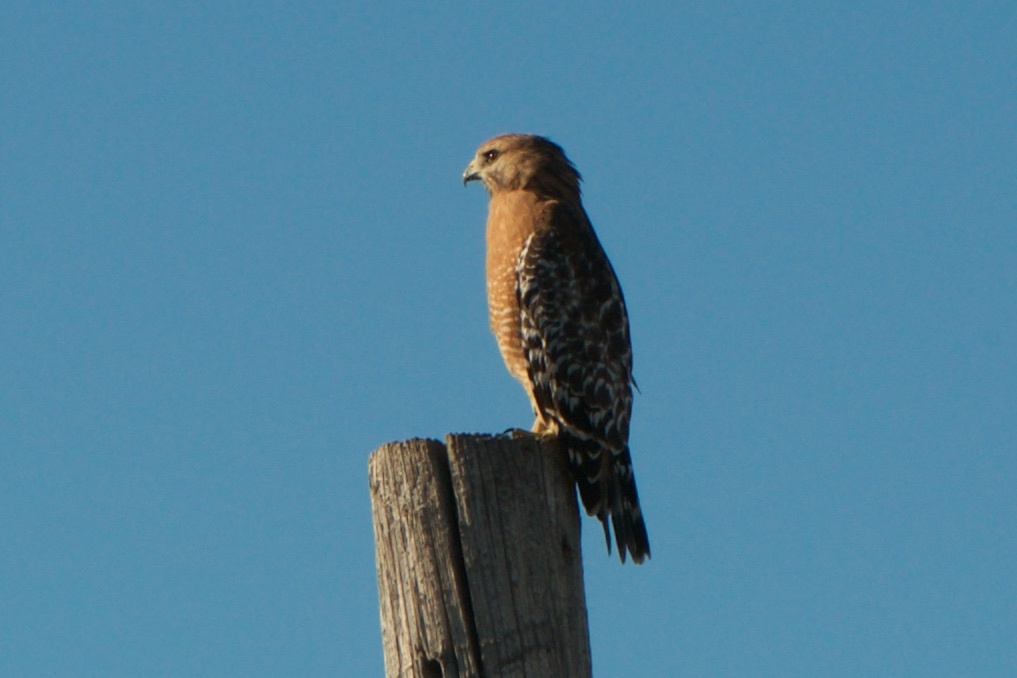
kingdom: Animalia
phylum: Chordata
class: Aves
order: Accipitriformes
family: Accipitridae
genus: Buteo
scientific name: Buteo lineatus
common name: Red-shouldered hawk
